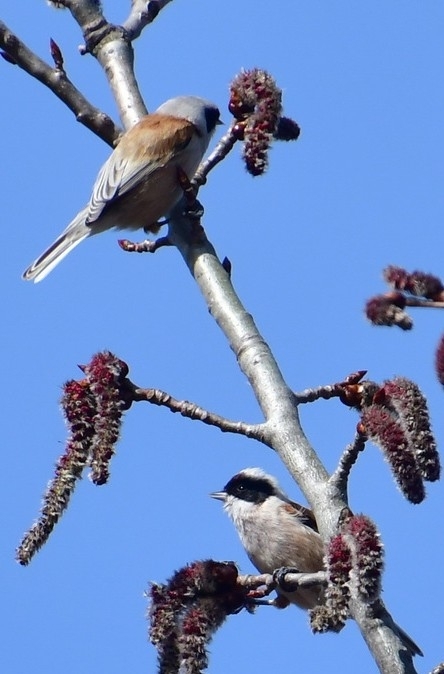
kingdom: Animalia
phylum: Chordata
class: Aves
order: Passeriformes
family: Remizidae
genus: Remiz
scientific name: Remiz pendulinus
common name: Eurasian penduline tit
